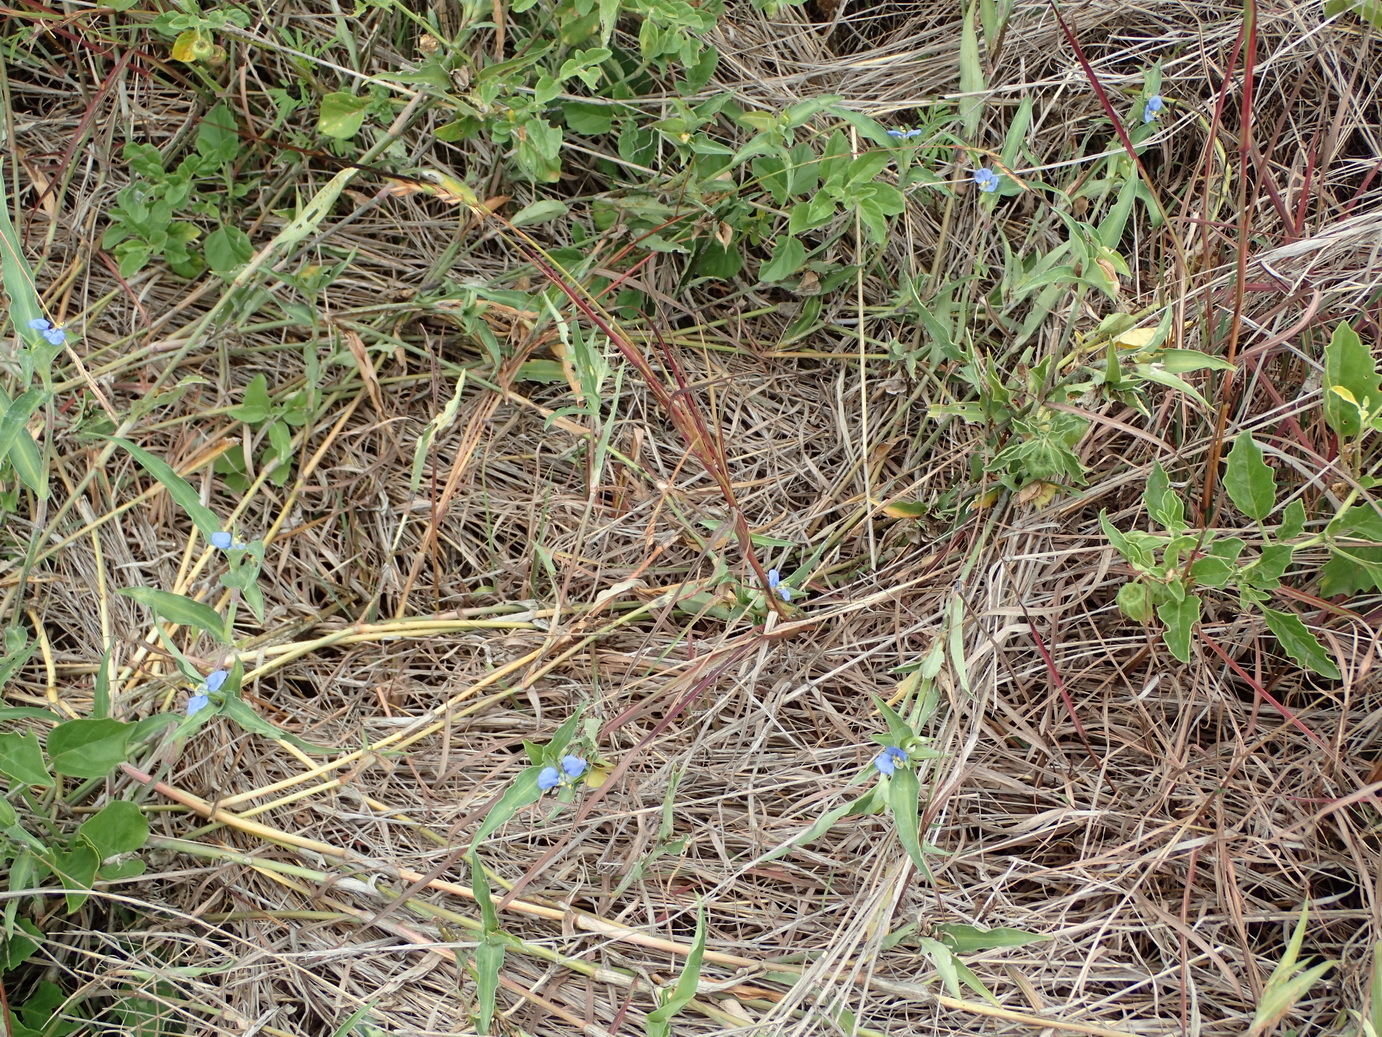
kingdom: Plantae
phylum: Tracheophyta
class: Liliopsida
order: Commelinales
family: Commelinaceae
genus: Commelina
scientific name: Commelina benghalensis
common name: Jio
